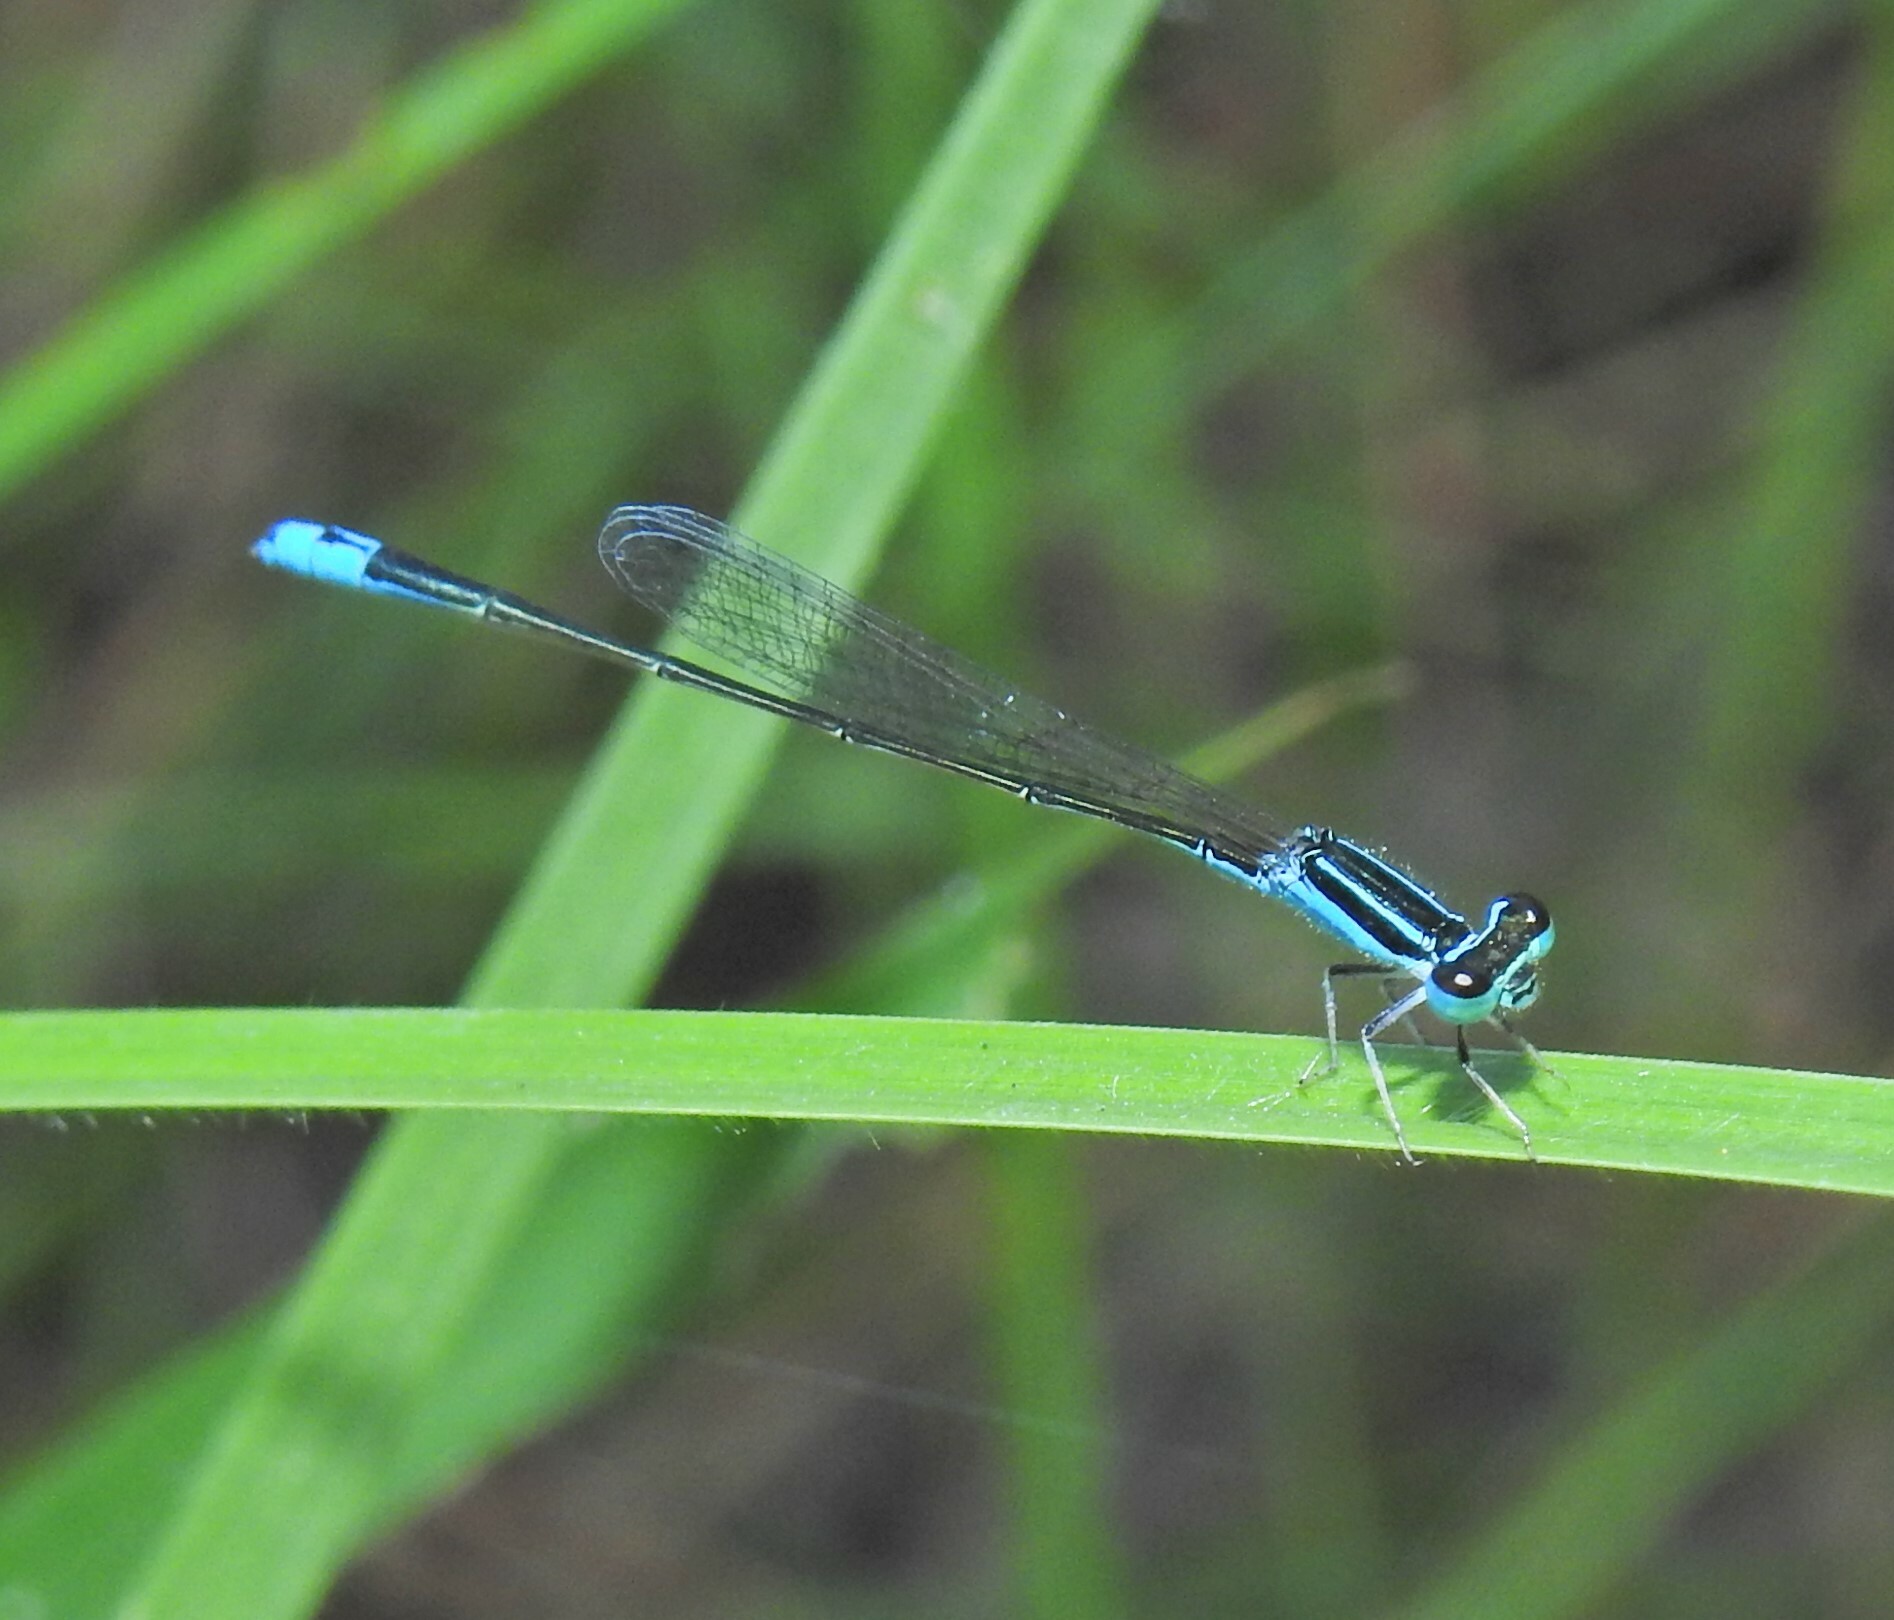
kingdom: Animalia
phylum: Arthropoda
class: Insecta
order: Odonata
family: Coenagrionidae
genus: Aciagrion
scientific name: Aciagrion fragile
